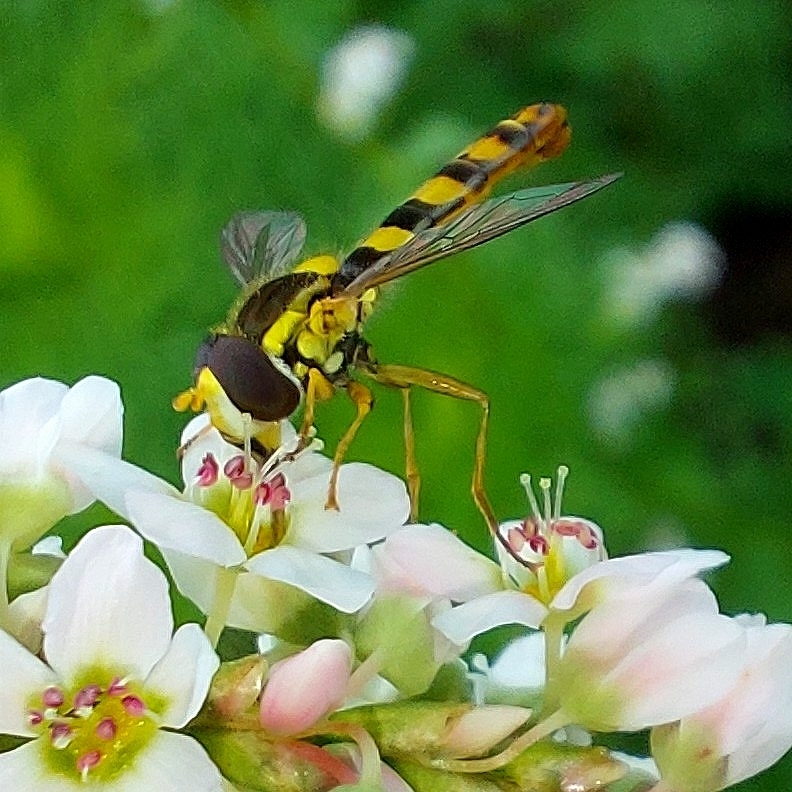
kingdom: Animalia
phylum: Arthropoda
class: Insecta
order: Diptera
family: Syrphidae
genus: Sphaerophoria
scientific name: Sphaerophoria scripta
